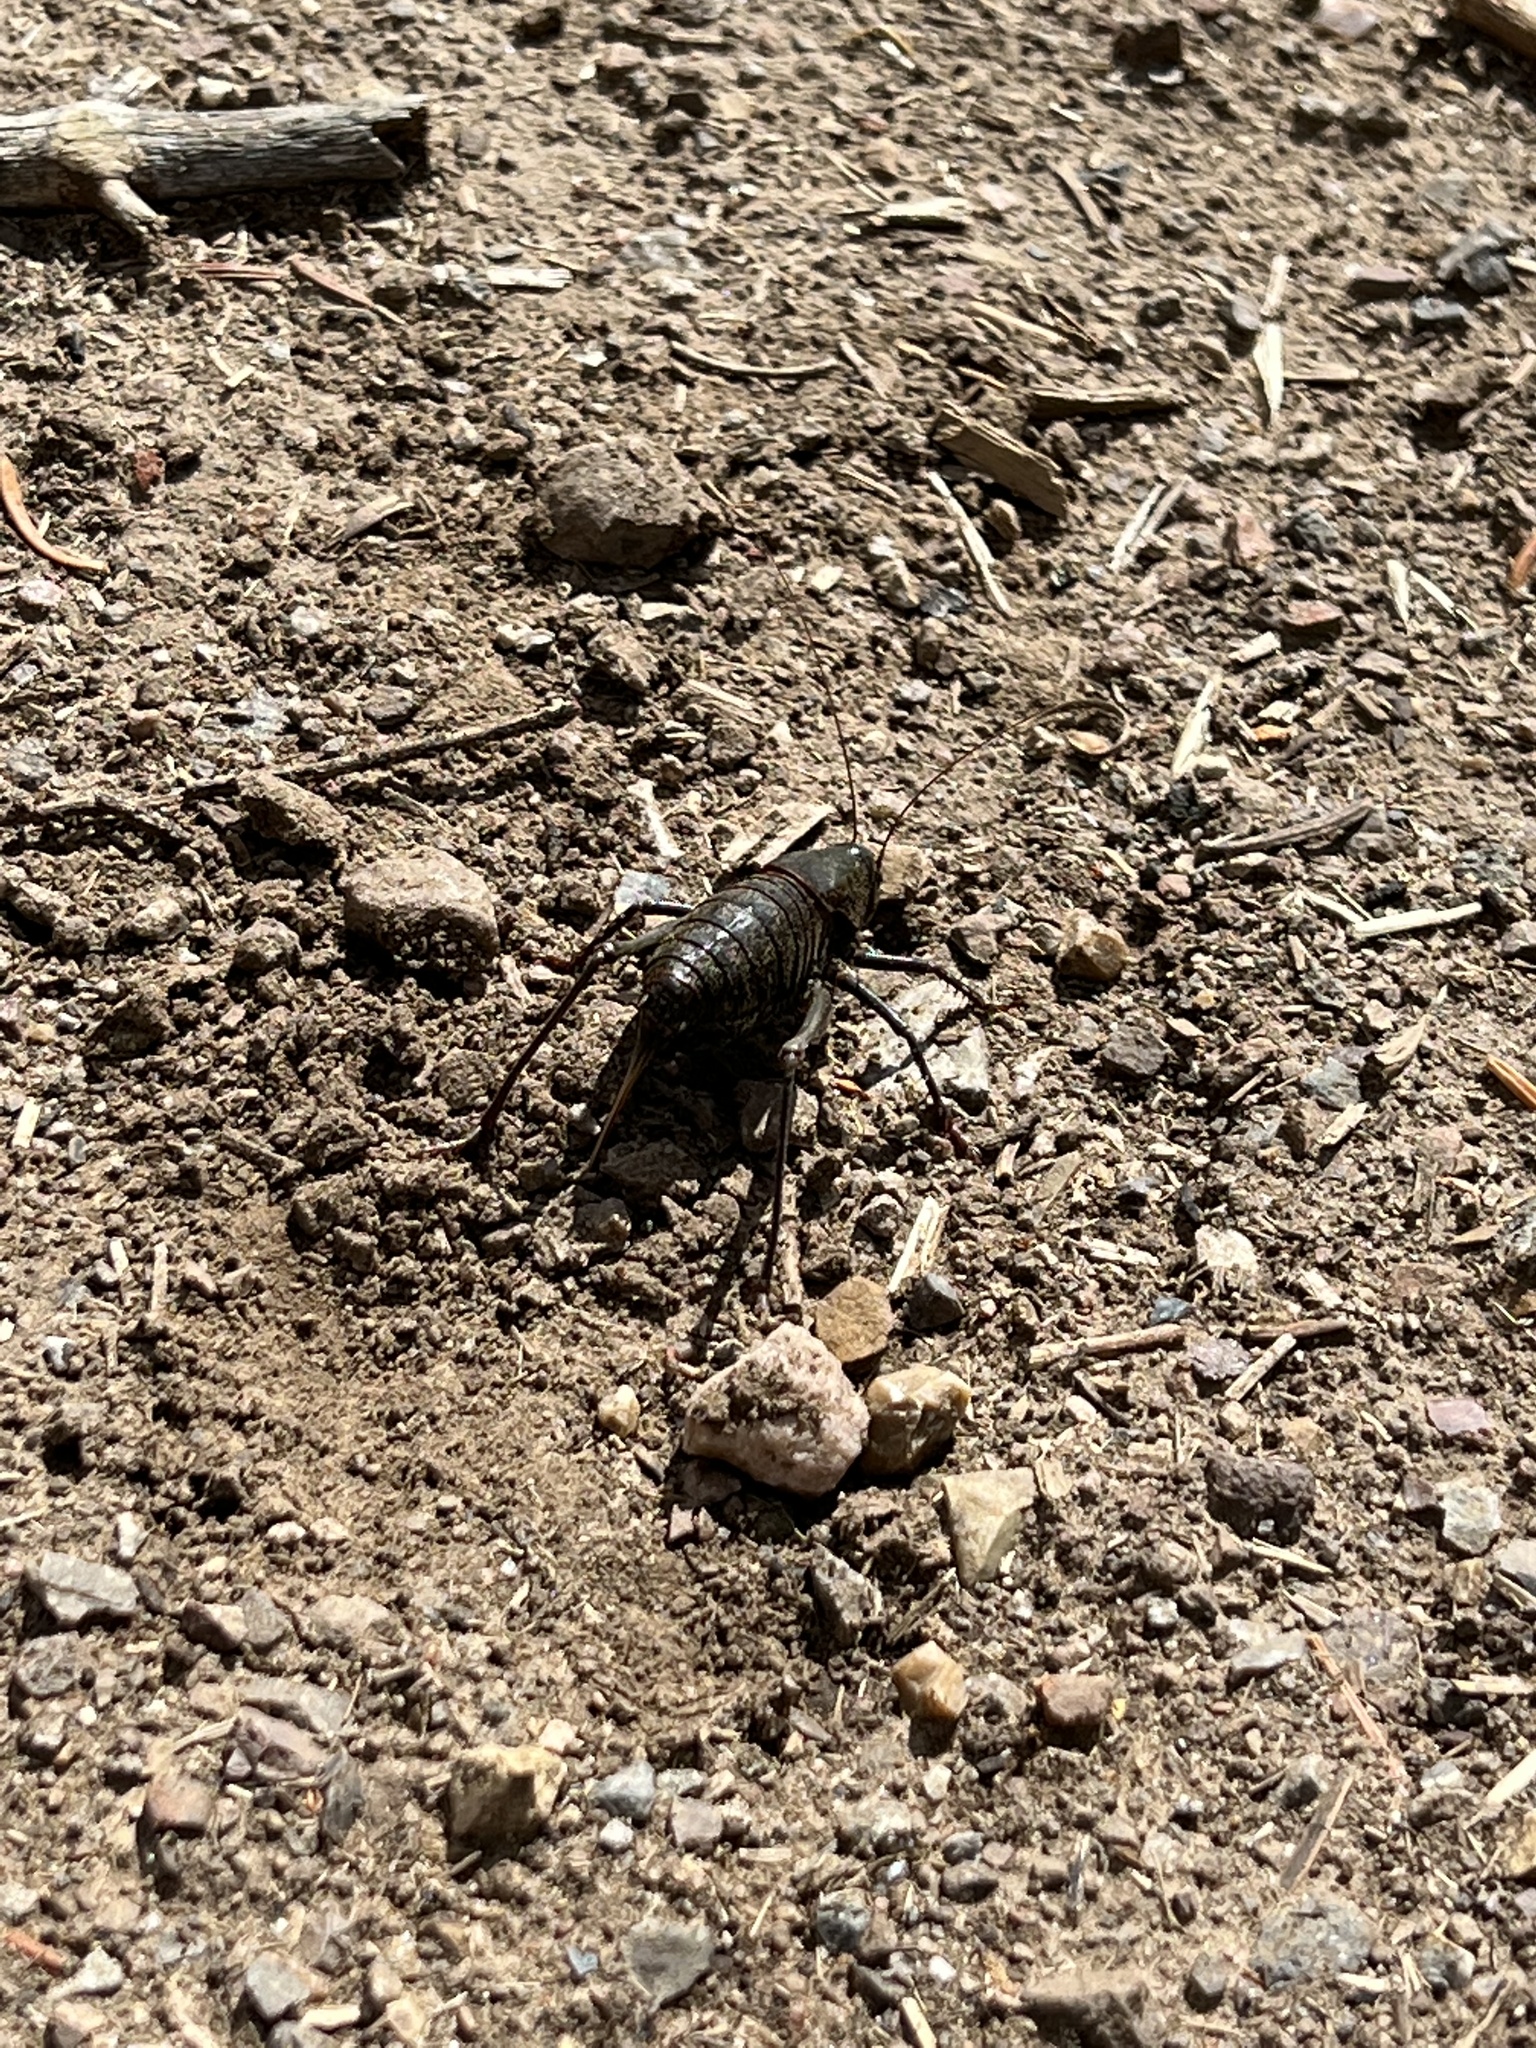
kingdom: Animalia
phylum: Arthropoda
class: Insecta
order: Orthoptera
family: Tettigoniidae
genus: Anabrus
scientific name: Anabrus simplex
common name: Mormon cricket
